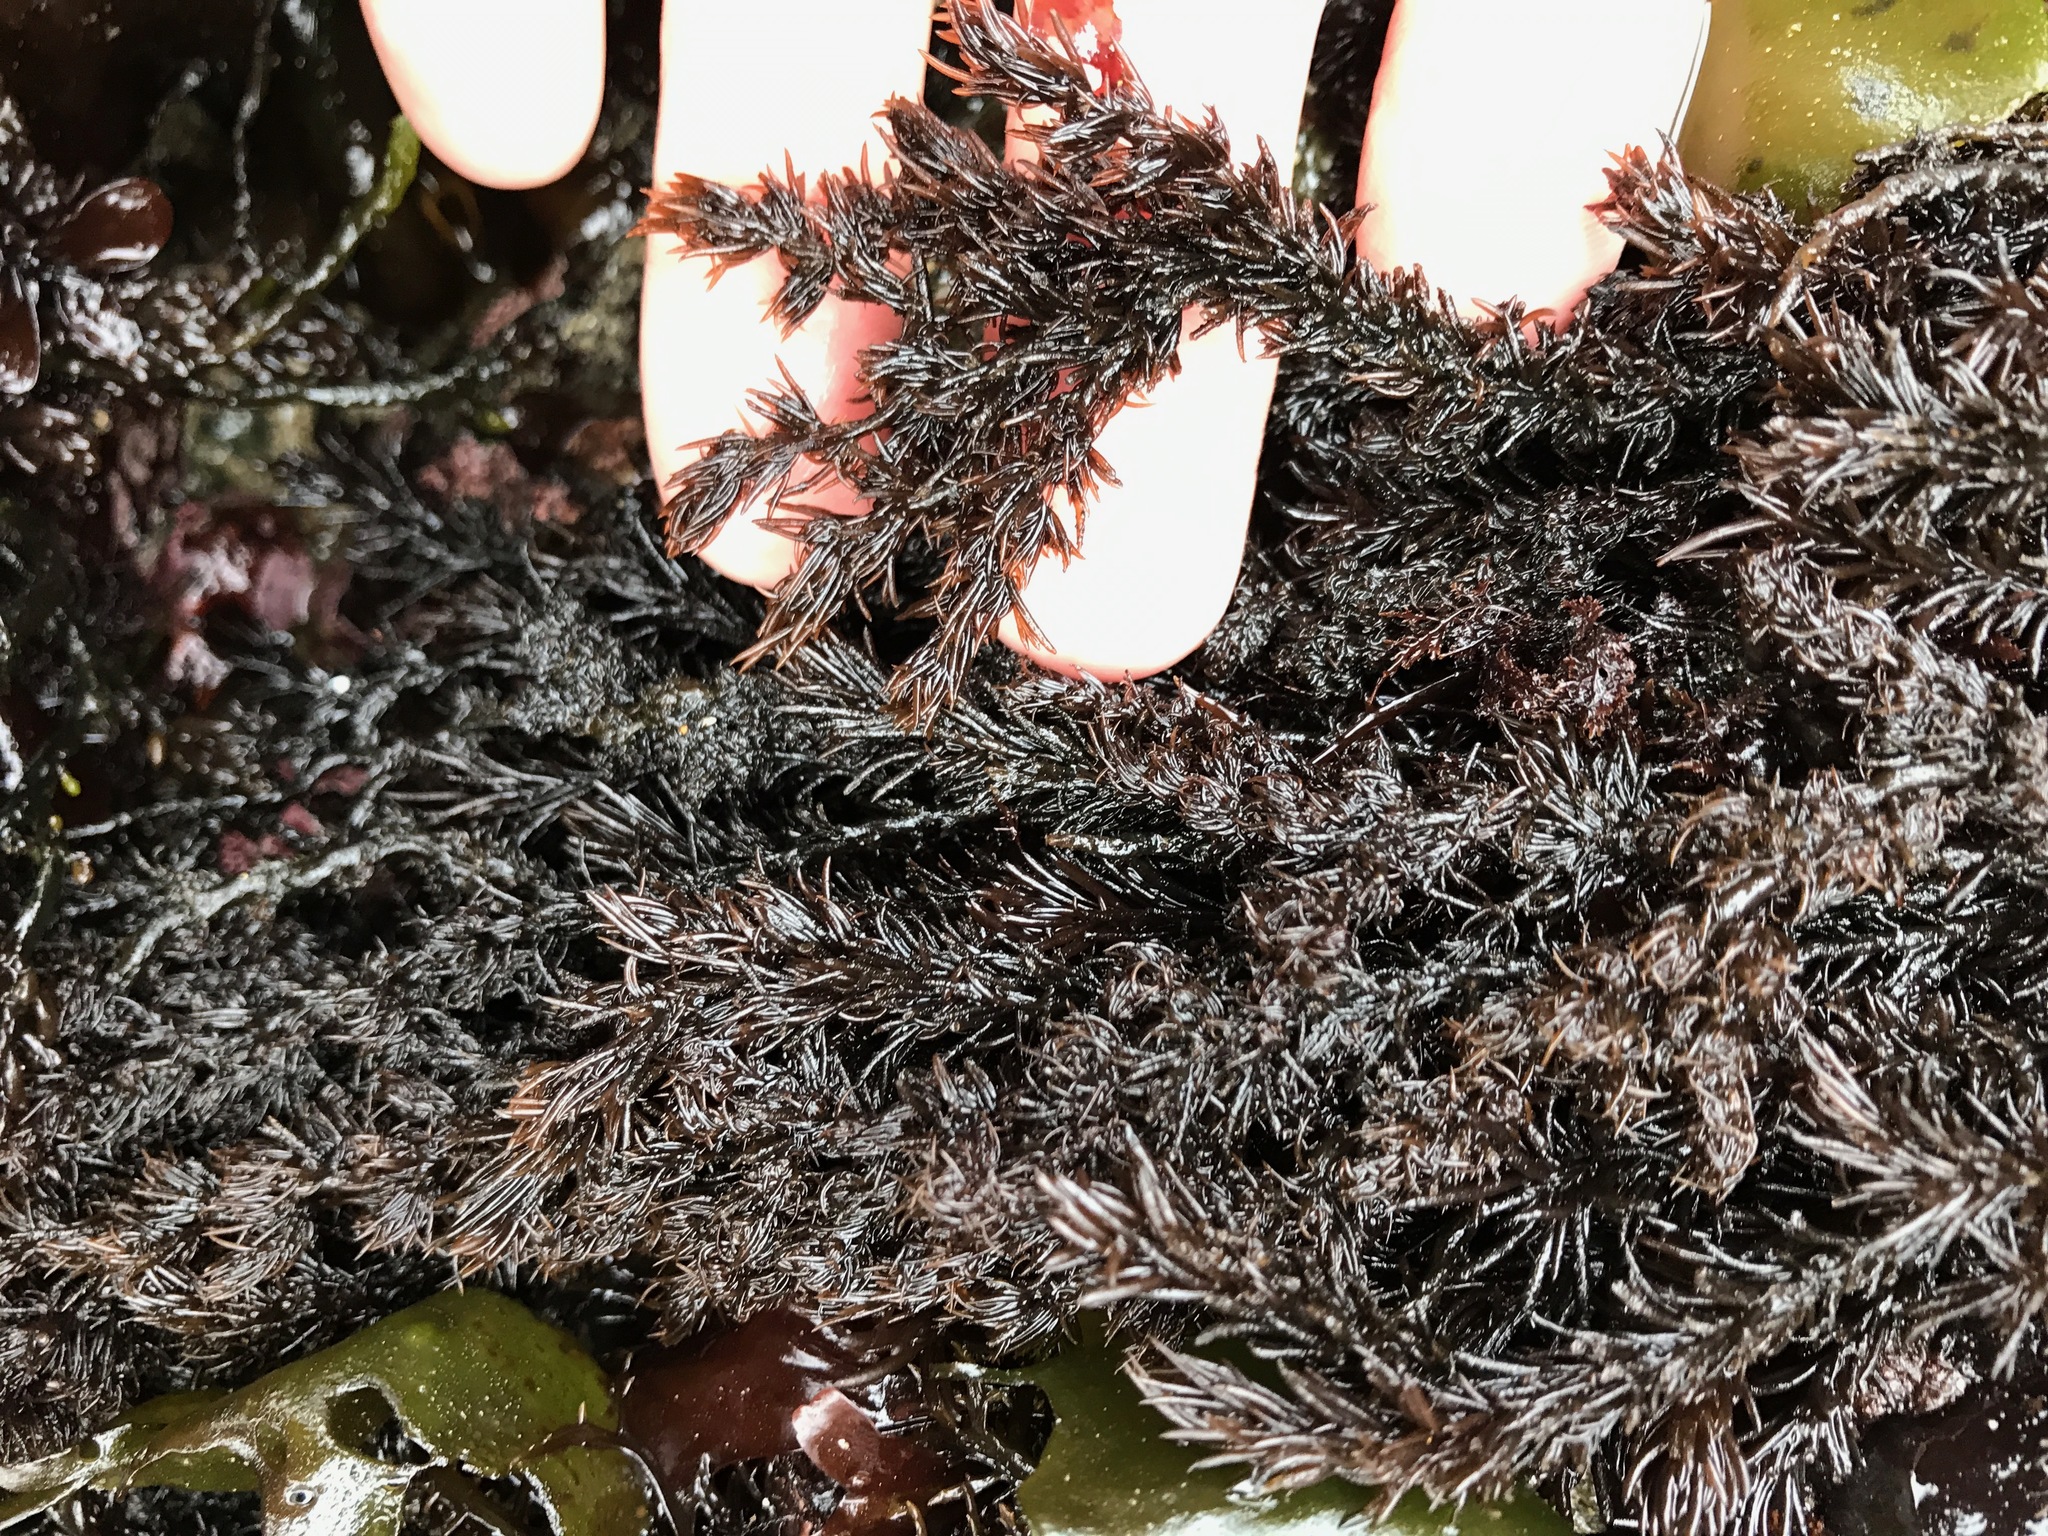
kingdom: Plantae
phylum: Rhodophyta
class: Florideophyceae
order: Ceramiales
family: Rhodomelaceae
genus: Neorhodomela
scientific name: Neorhodomela larix
